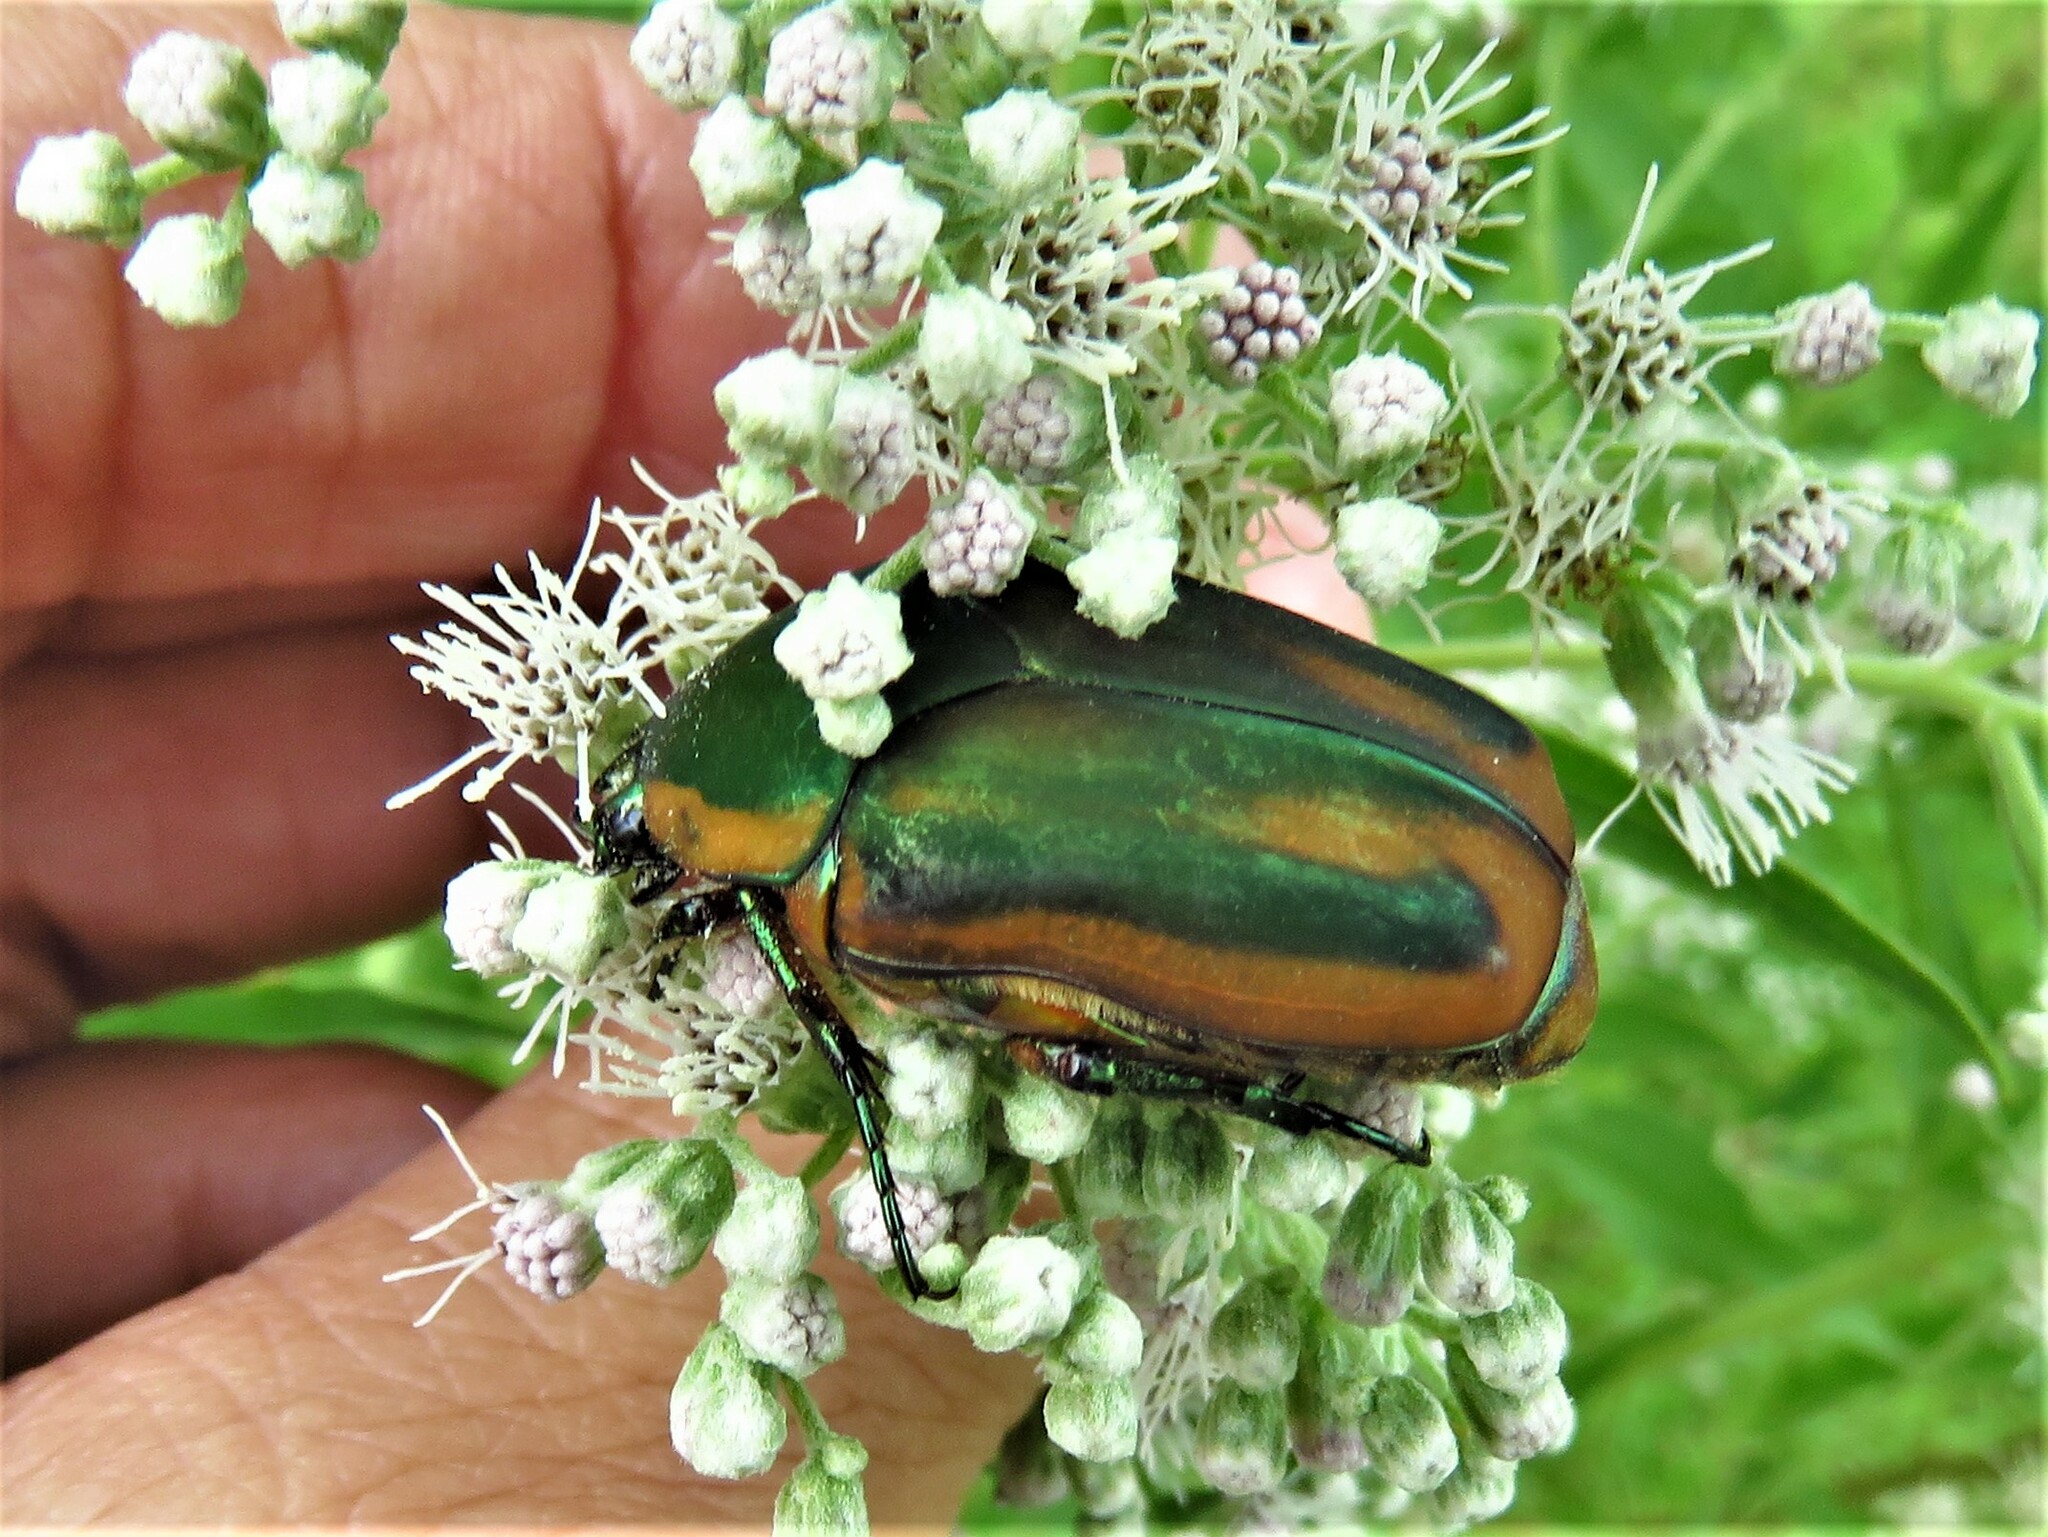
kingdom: Animalia
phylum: Arthropoda
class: Insecta
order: Coleoptera
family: Scarabaeidae
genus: Cotinis
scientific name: Cotinis nitida
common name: Common green june beetle
